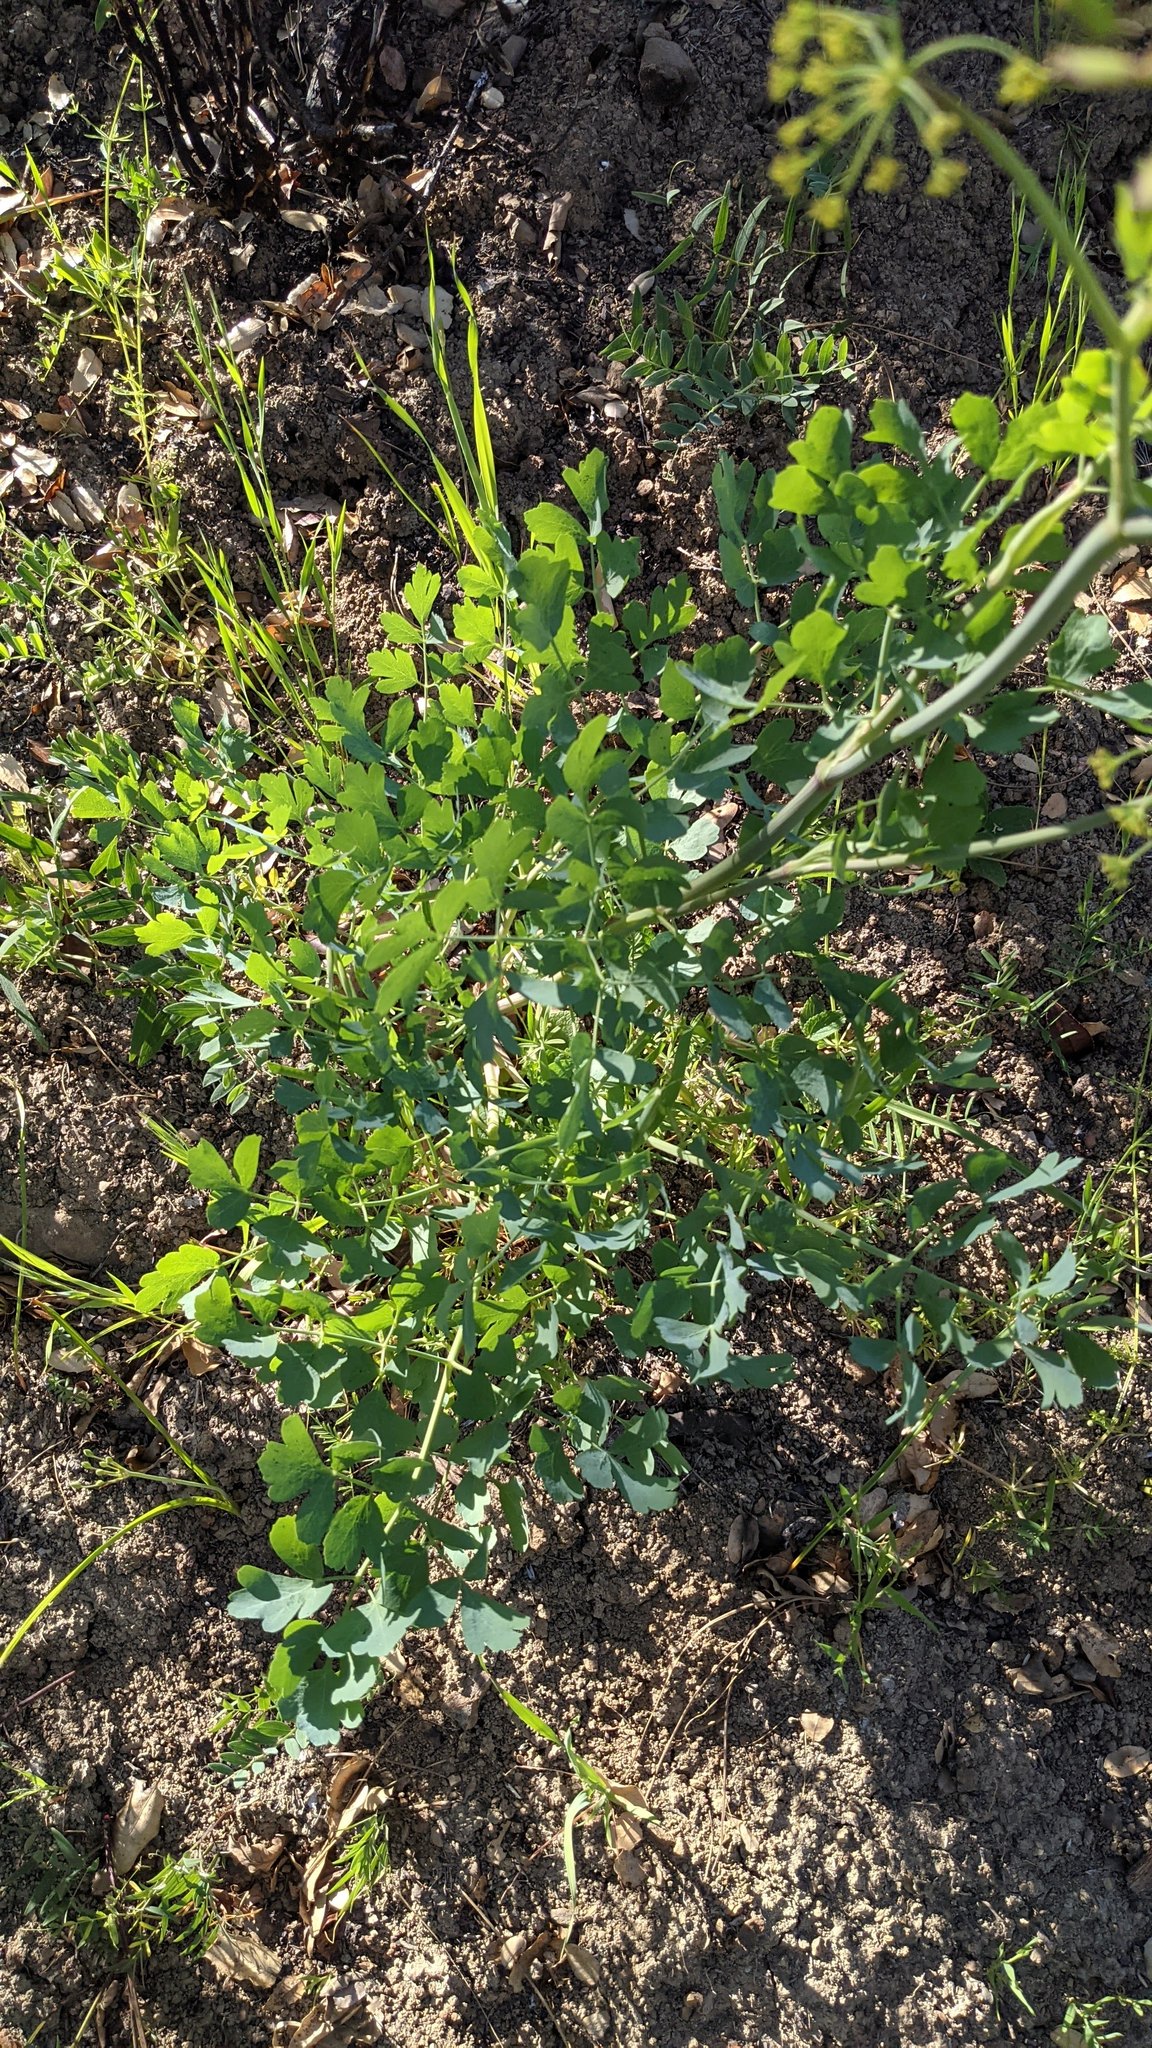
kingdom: Plantae
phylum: Tracheophyta
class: Magnoliopsida
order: Apiales
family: Apiaceae
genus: Lomatium
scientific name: Lomatium californicum
